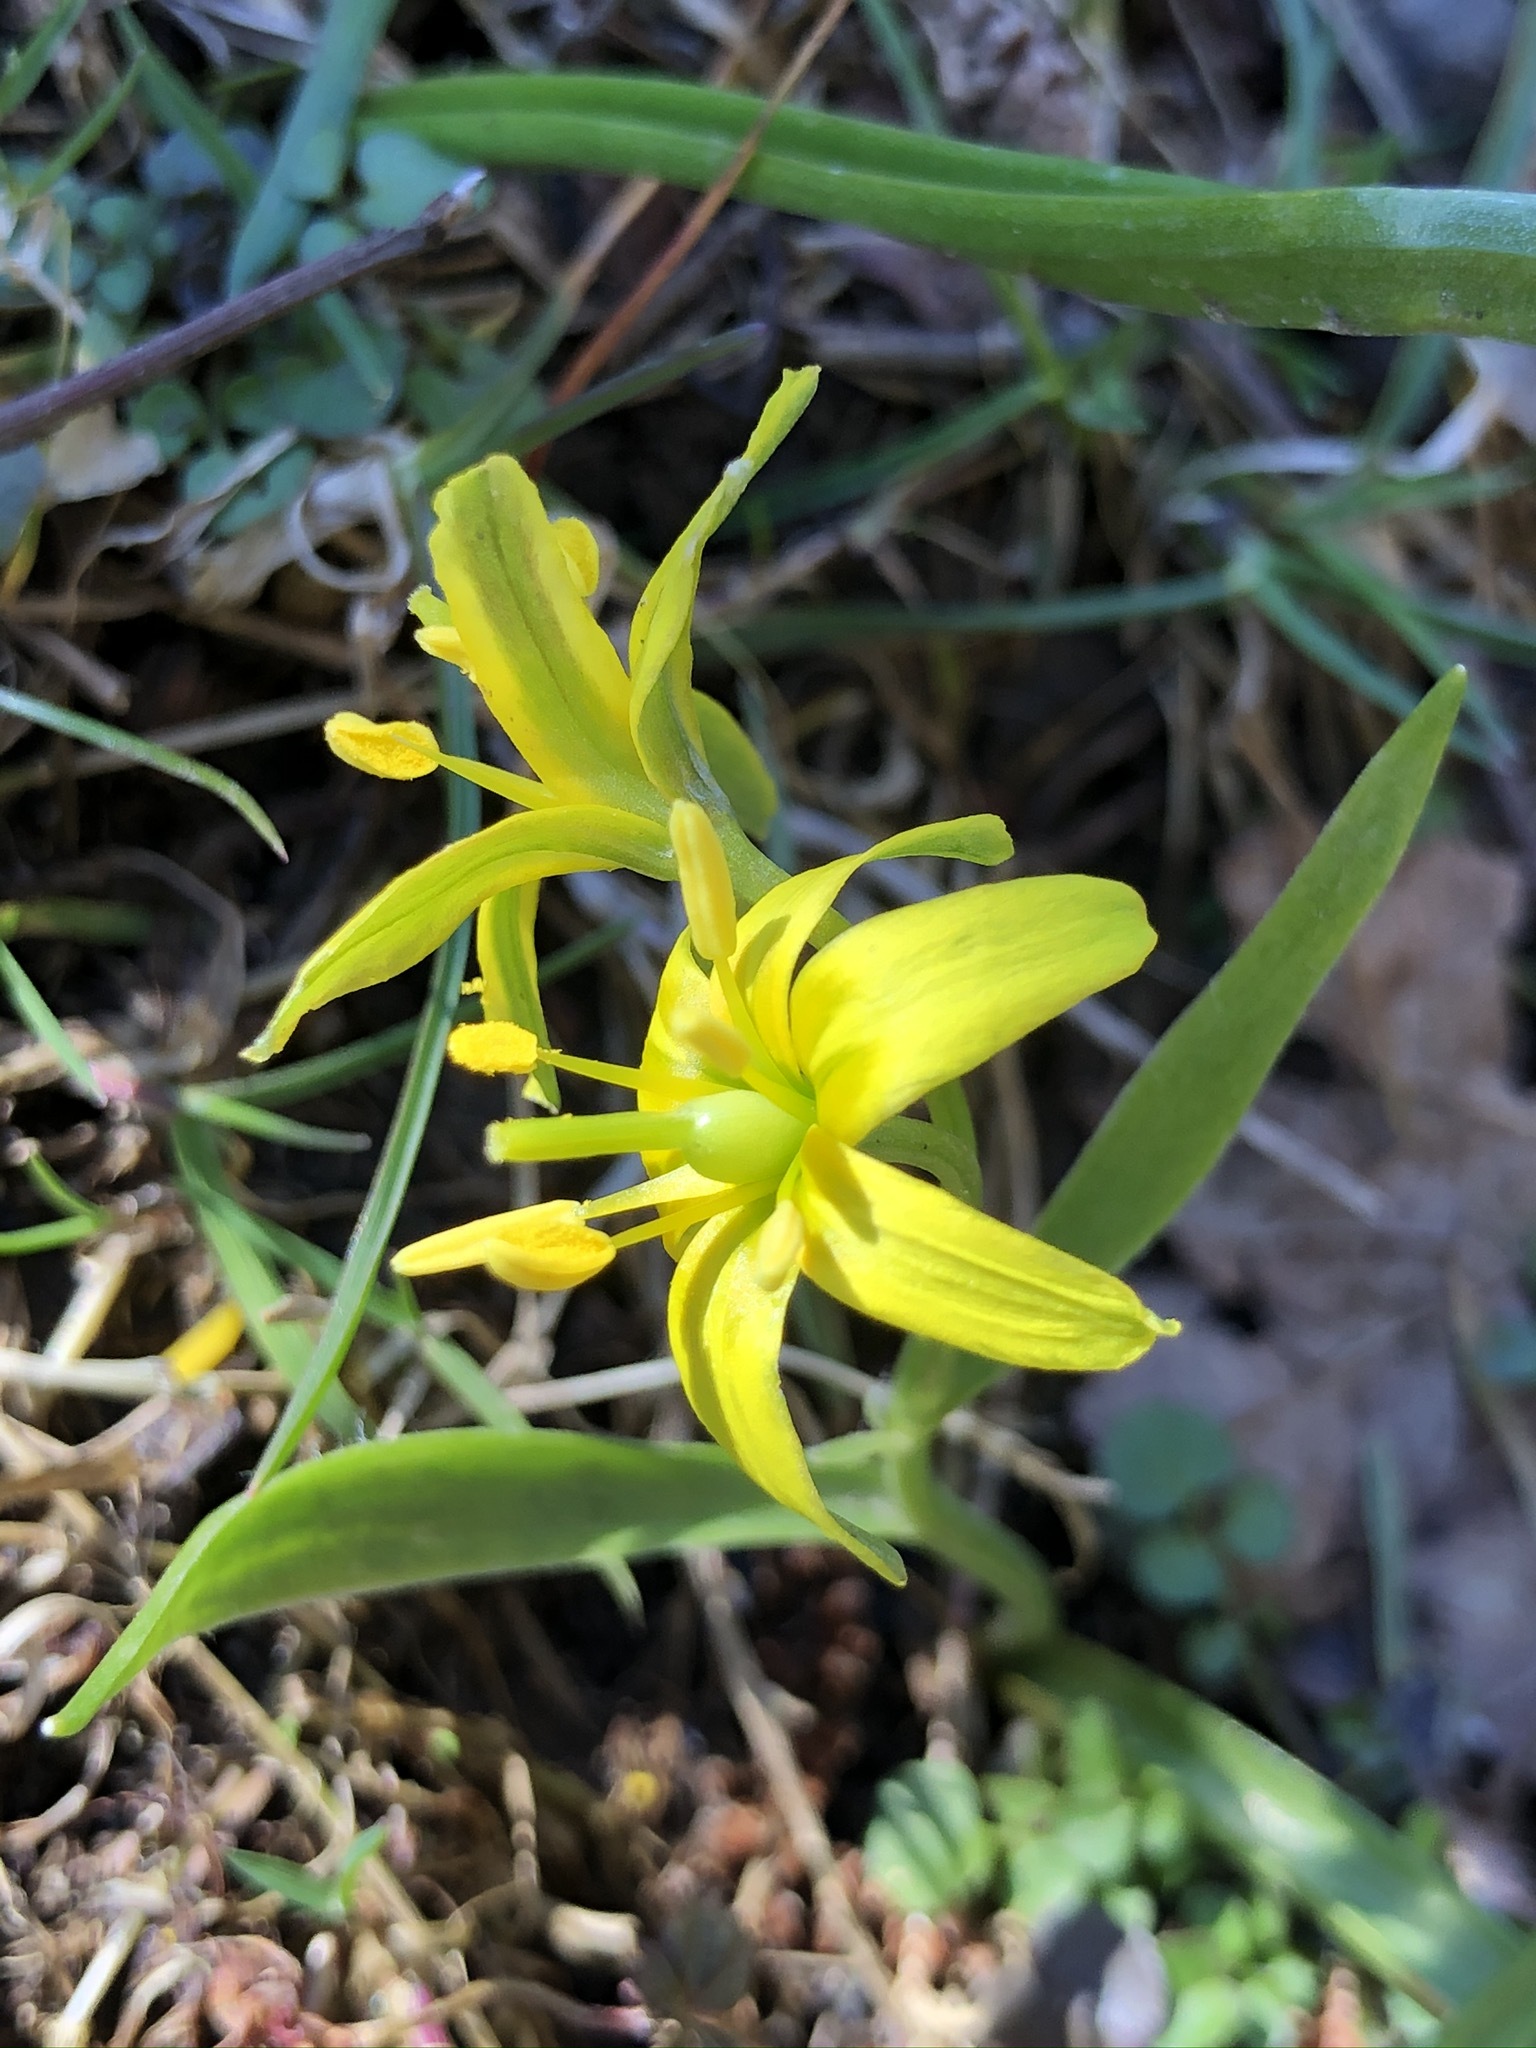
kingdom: Plantae
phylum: Tracheophyta
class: Liliopsida
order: Liliales
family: Liliaceae
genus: Gagea
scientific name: Gagea lutea
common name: Yellow star-of-bethlehem
